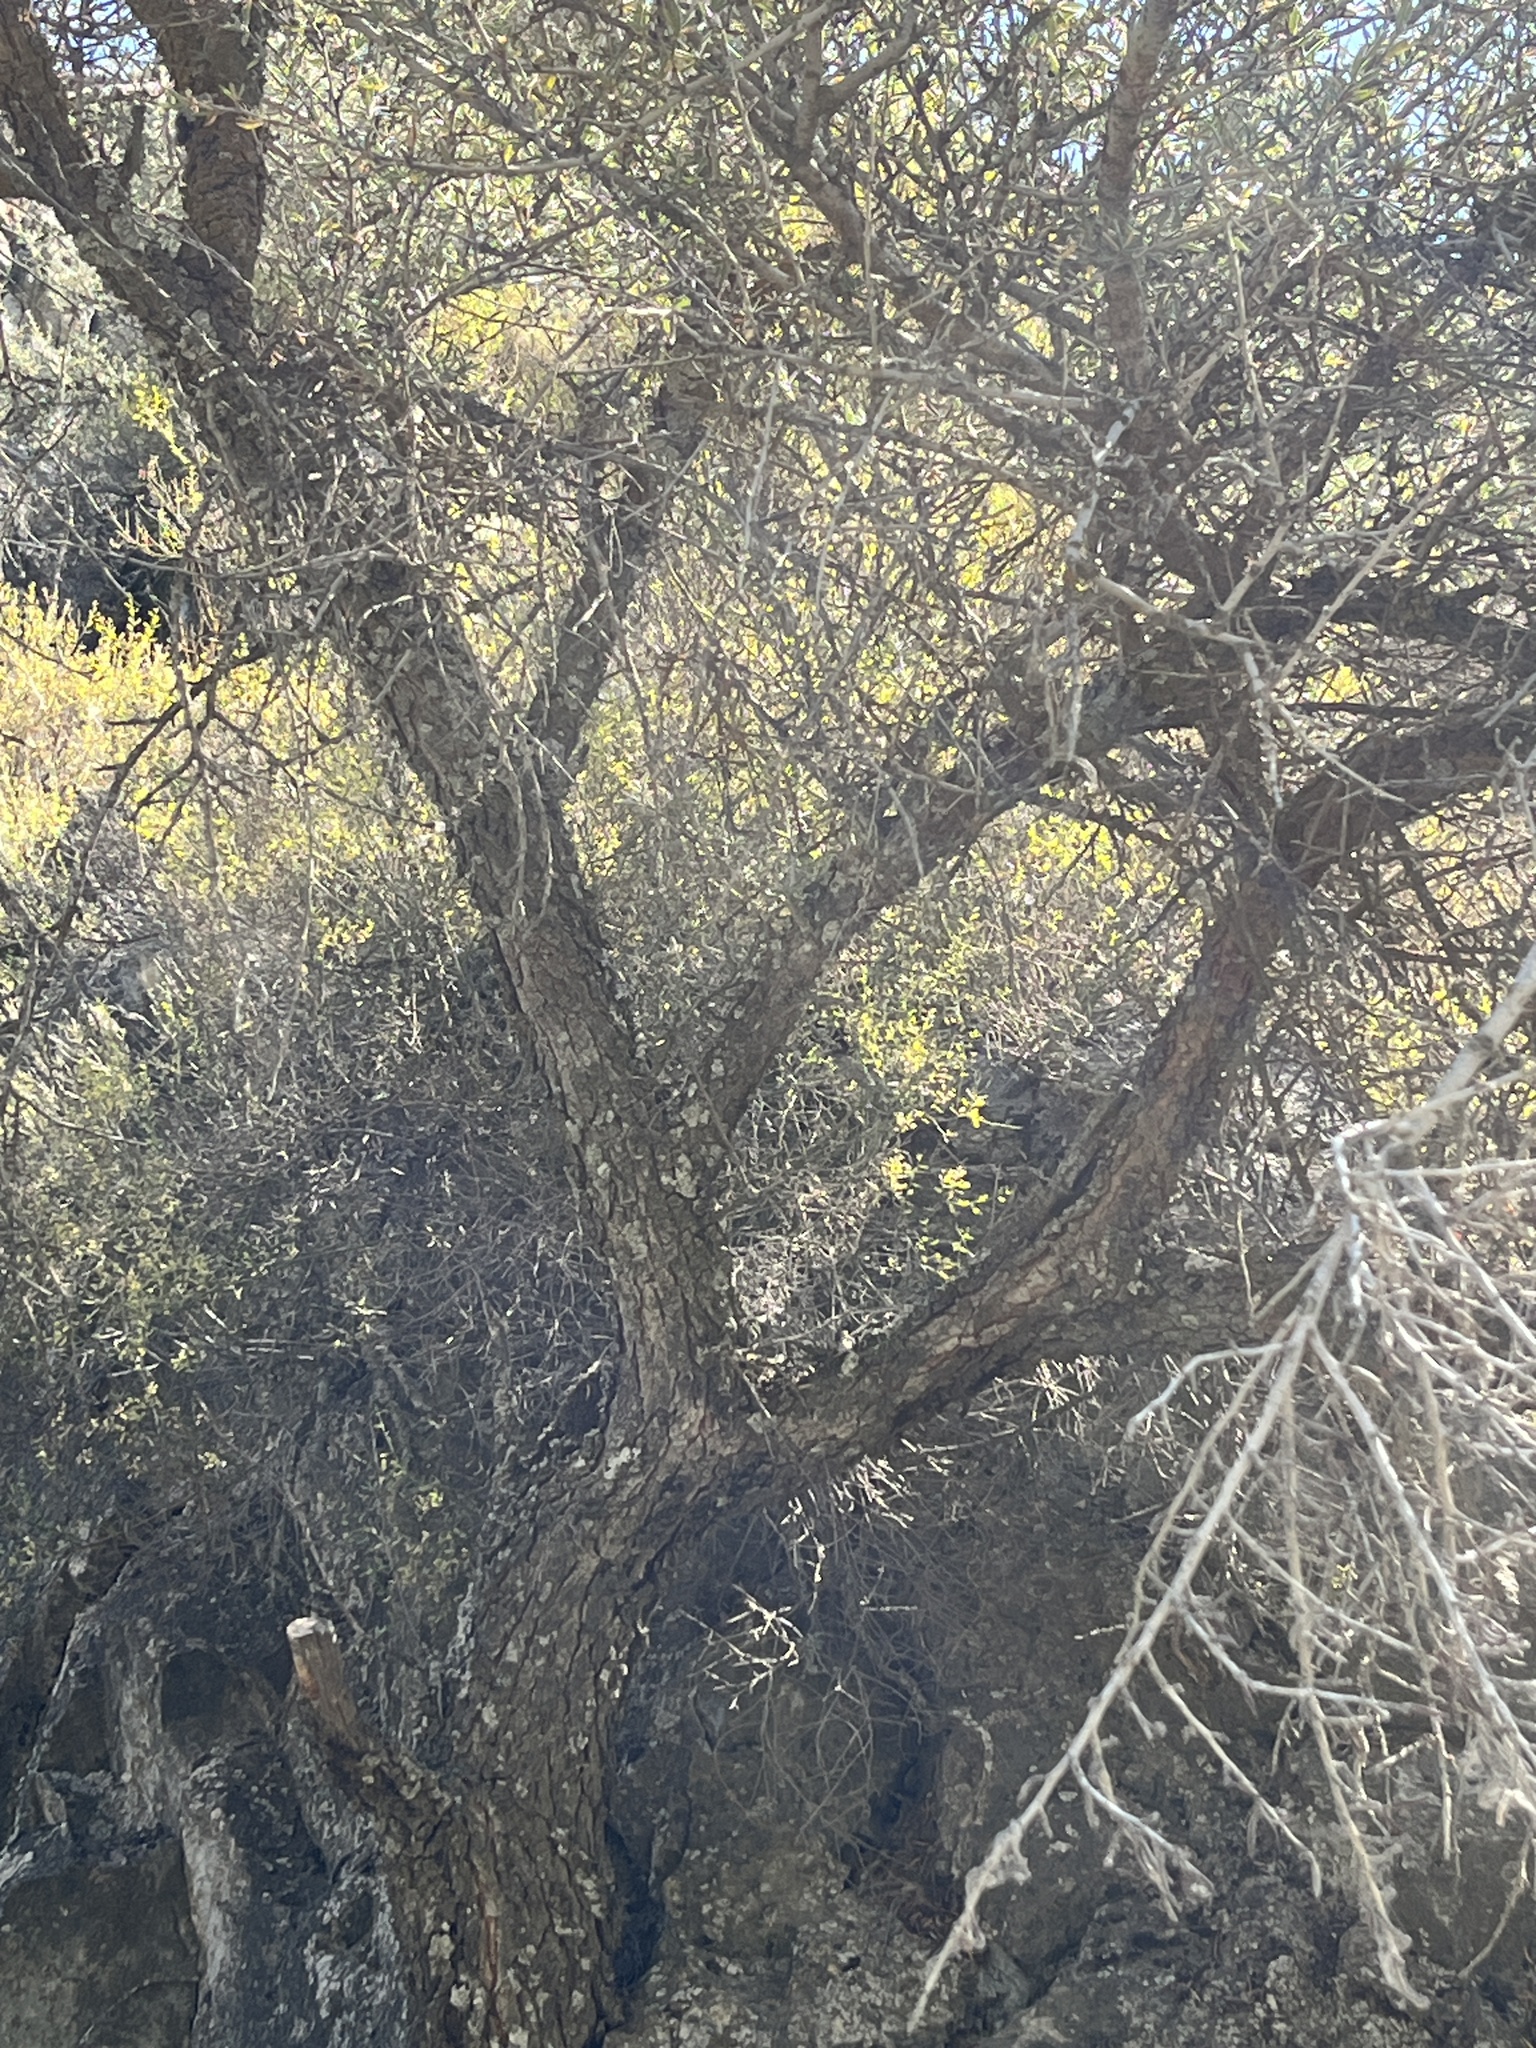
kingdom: Plantae
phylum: Tracheophyta
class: Magnoliopsida
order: Rosales
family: Rosaceae
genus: Cercocarpus
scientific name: Cercocarpus ledifolius
